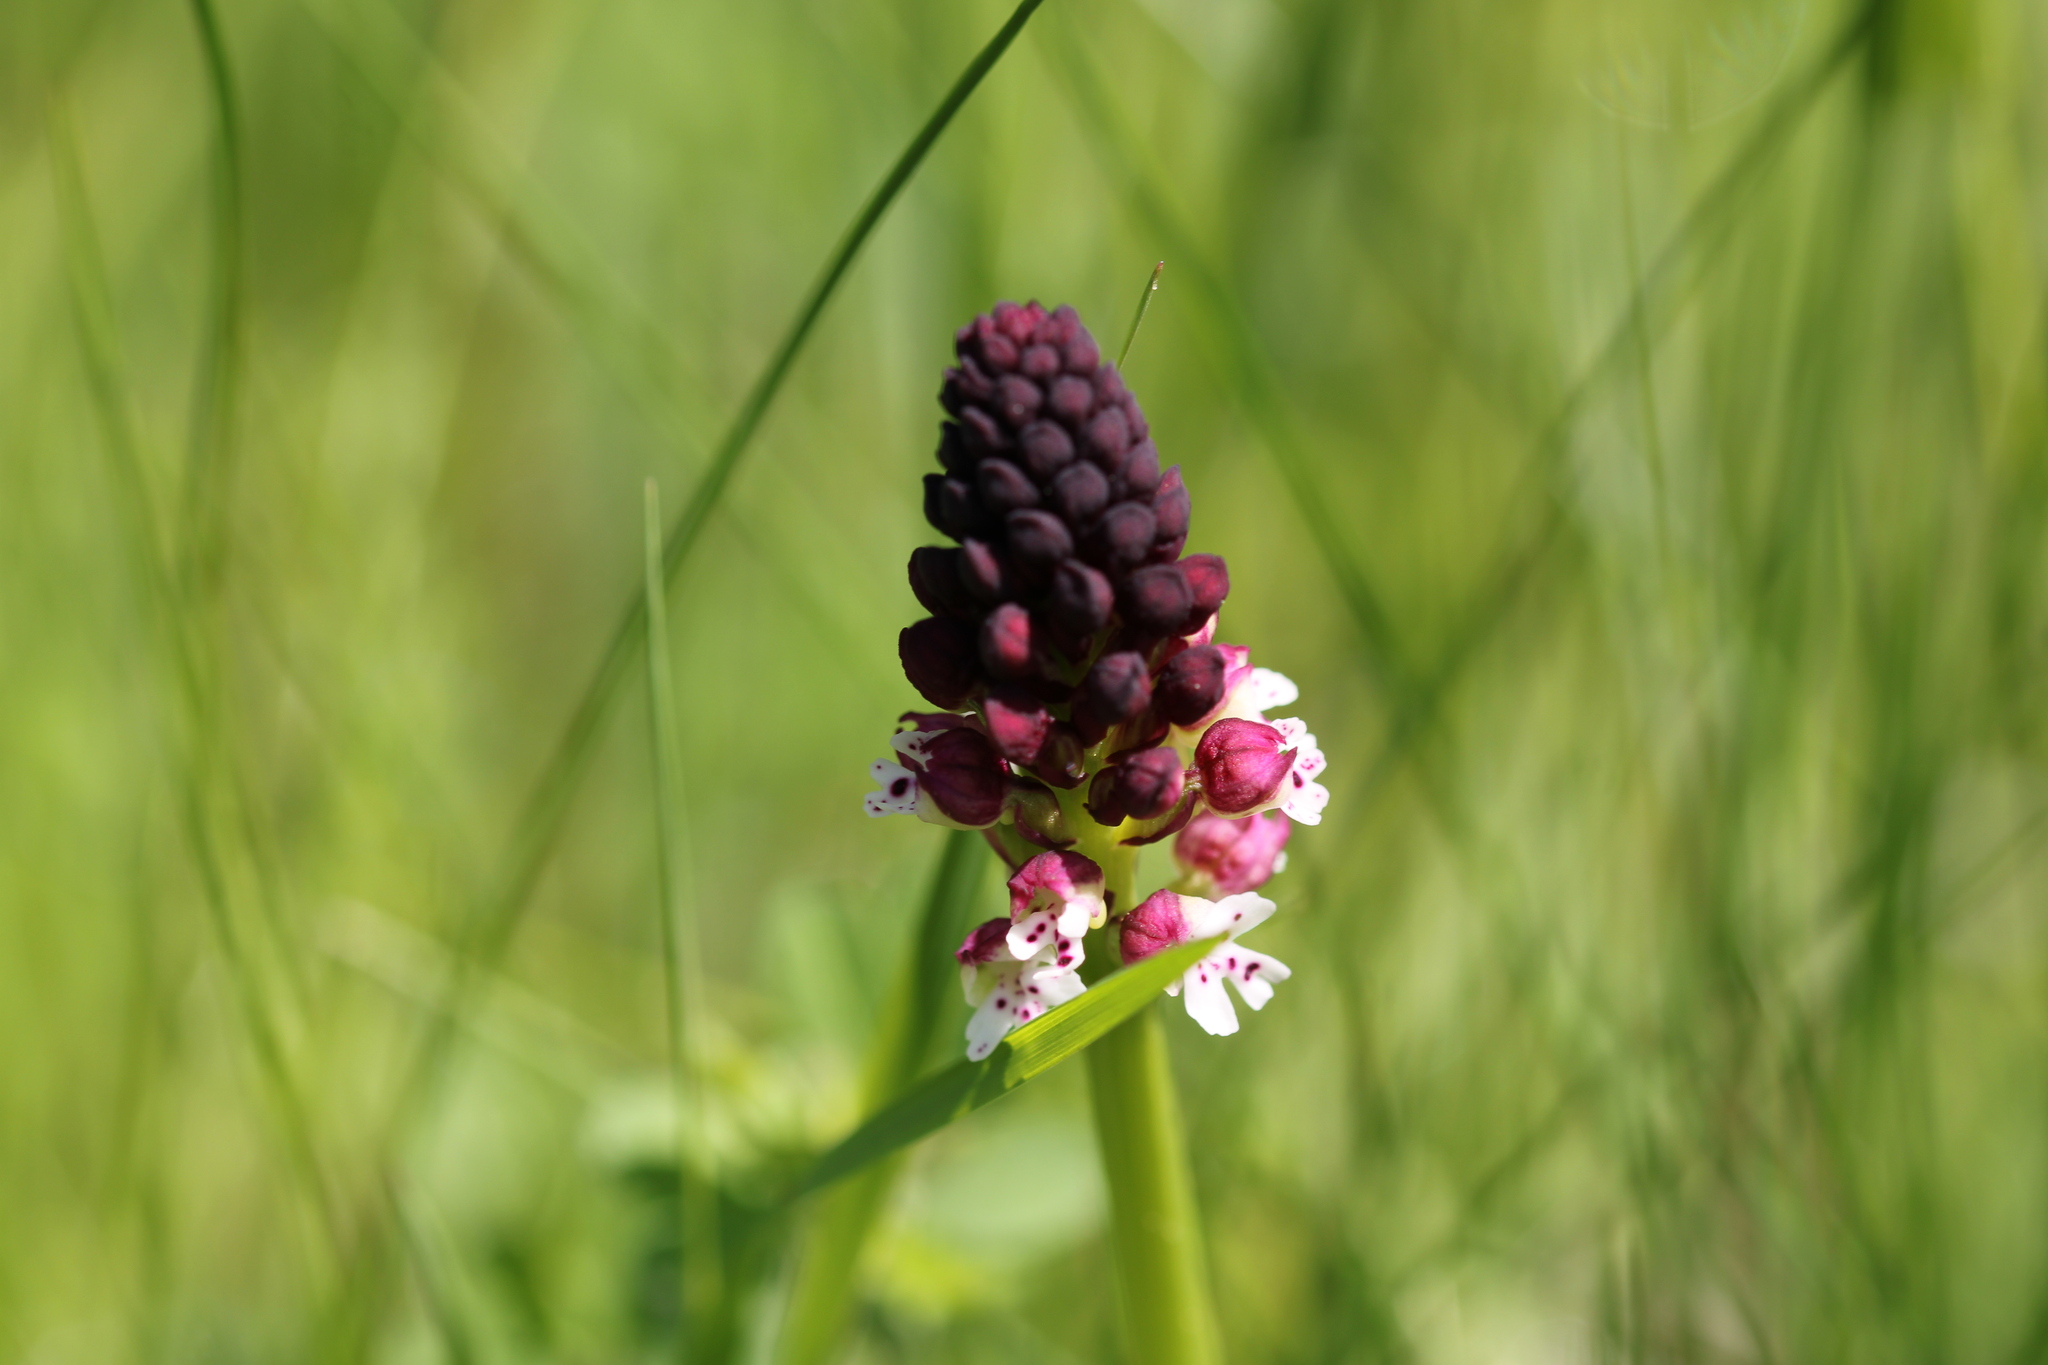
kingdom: Plantae
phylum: Tracheophyta
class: Liliopsida
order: Asparagales
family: Orchidaceae
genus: Neotinea
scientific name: Neotinea ustulata
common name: Burnt orchid
